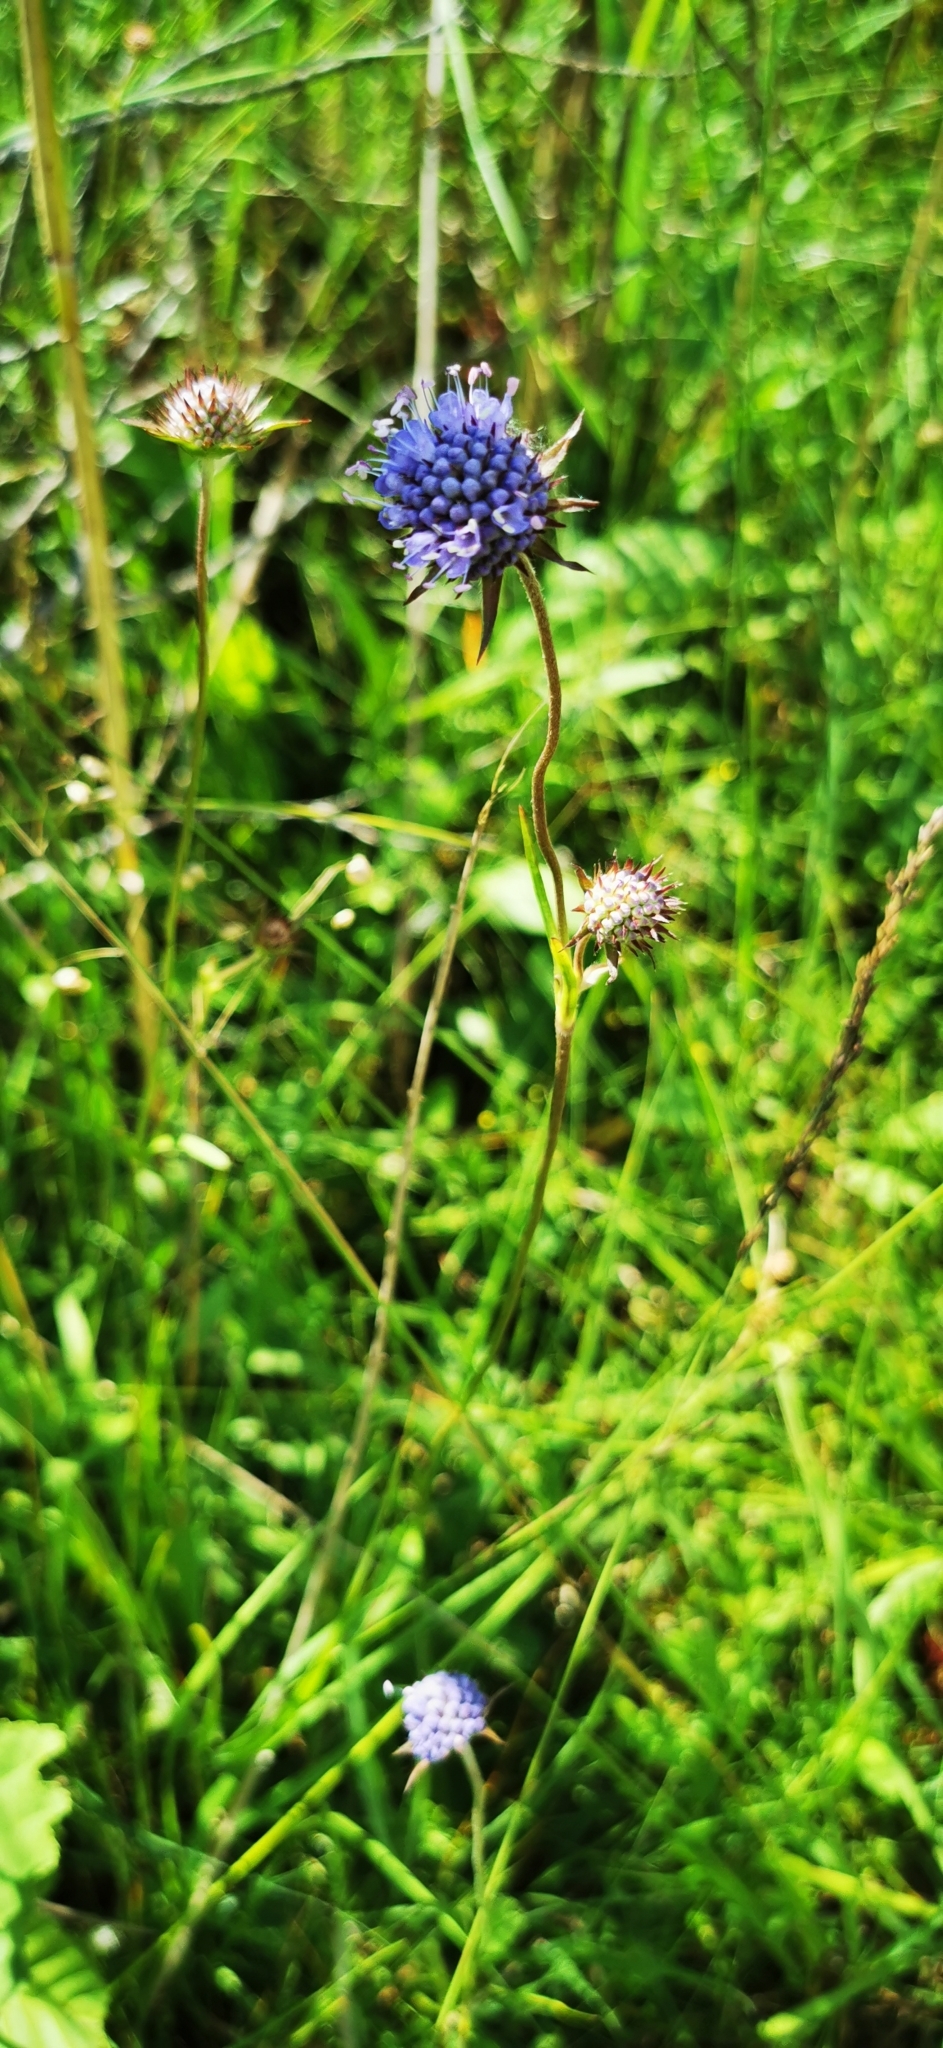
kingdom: Plantae
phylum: Tracheophyta
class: Magnoliopsida
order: Dipsacales
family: Caprifoliaceae
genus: Succisa
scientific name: Succisa pratensis
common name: Devil's-bit
